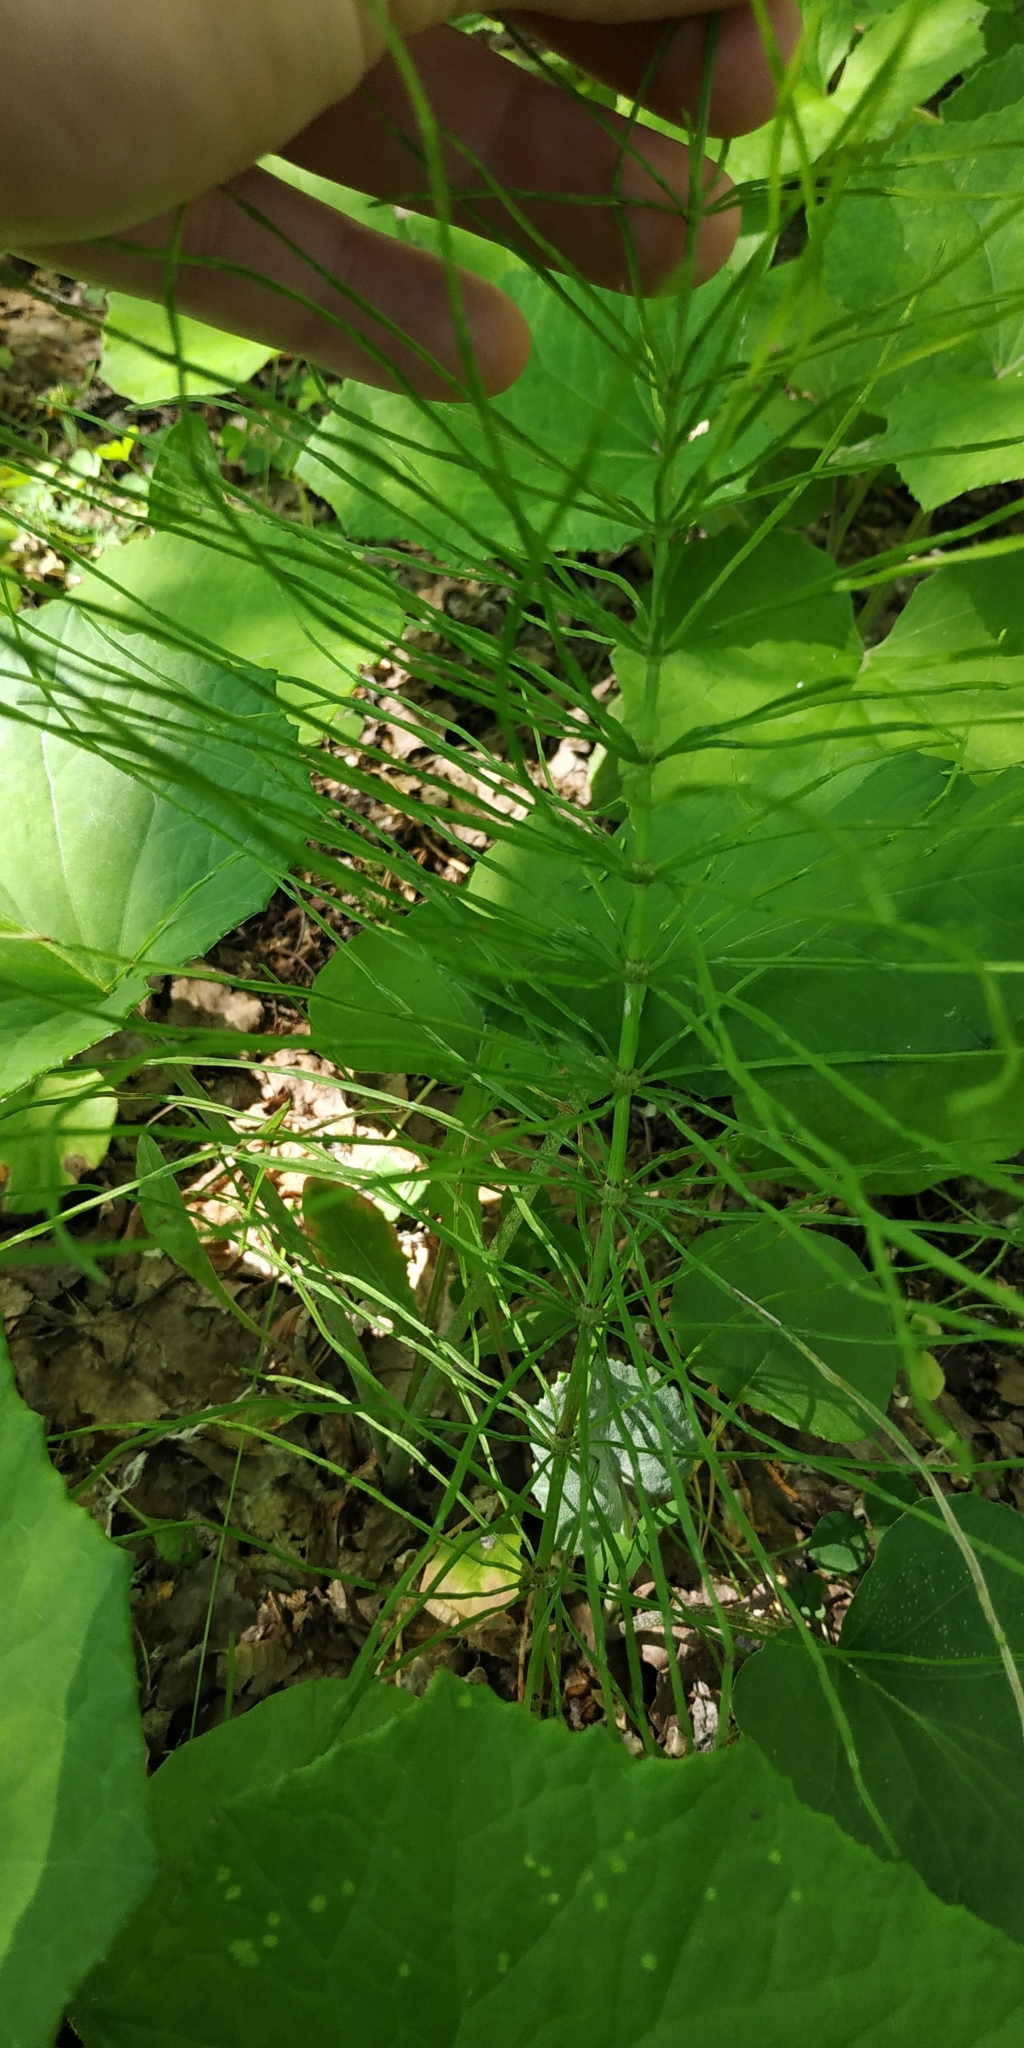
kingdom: Plantae
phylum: Tracheophyta
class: Polypodiopsida
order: Equisetales
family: Equisetaceae
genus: Equisetum
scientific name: Equisetum arvense
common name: Field horsetail
